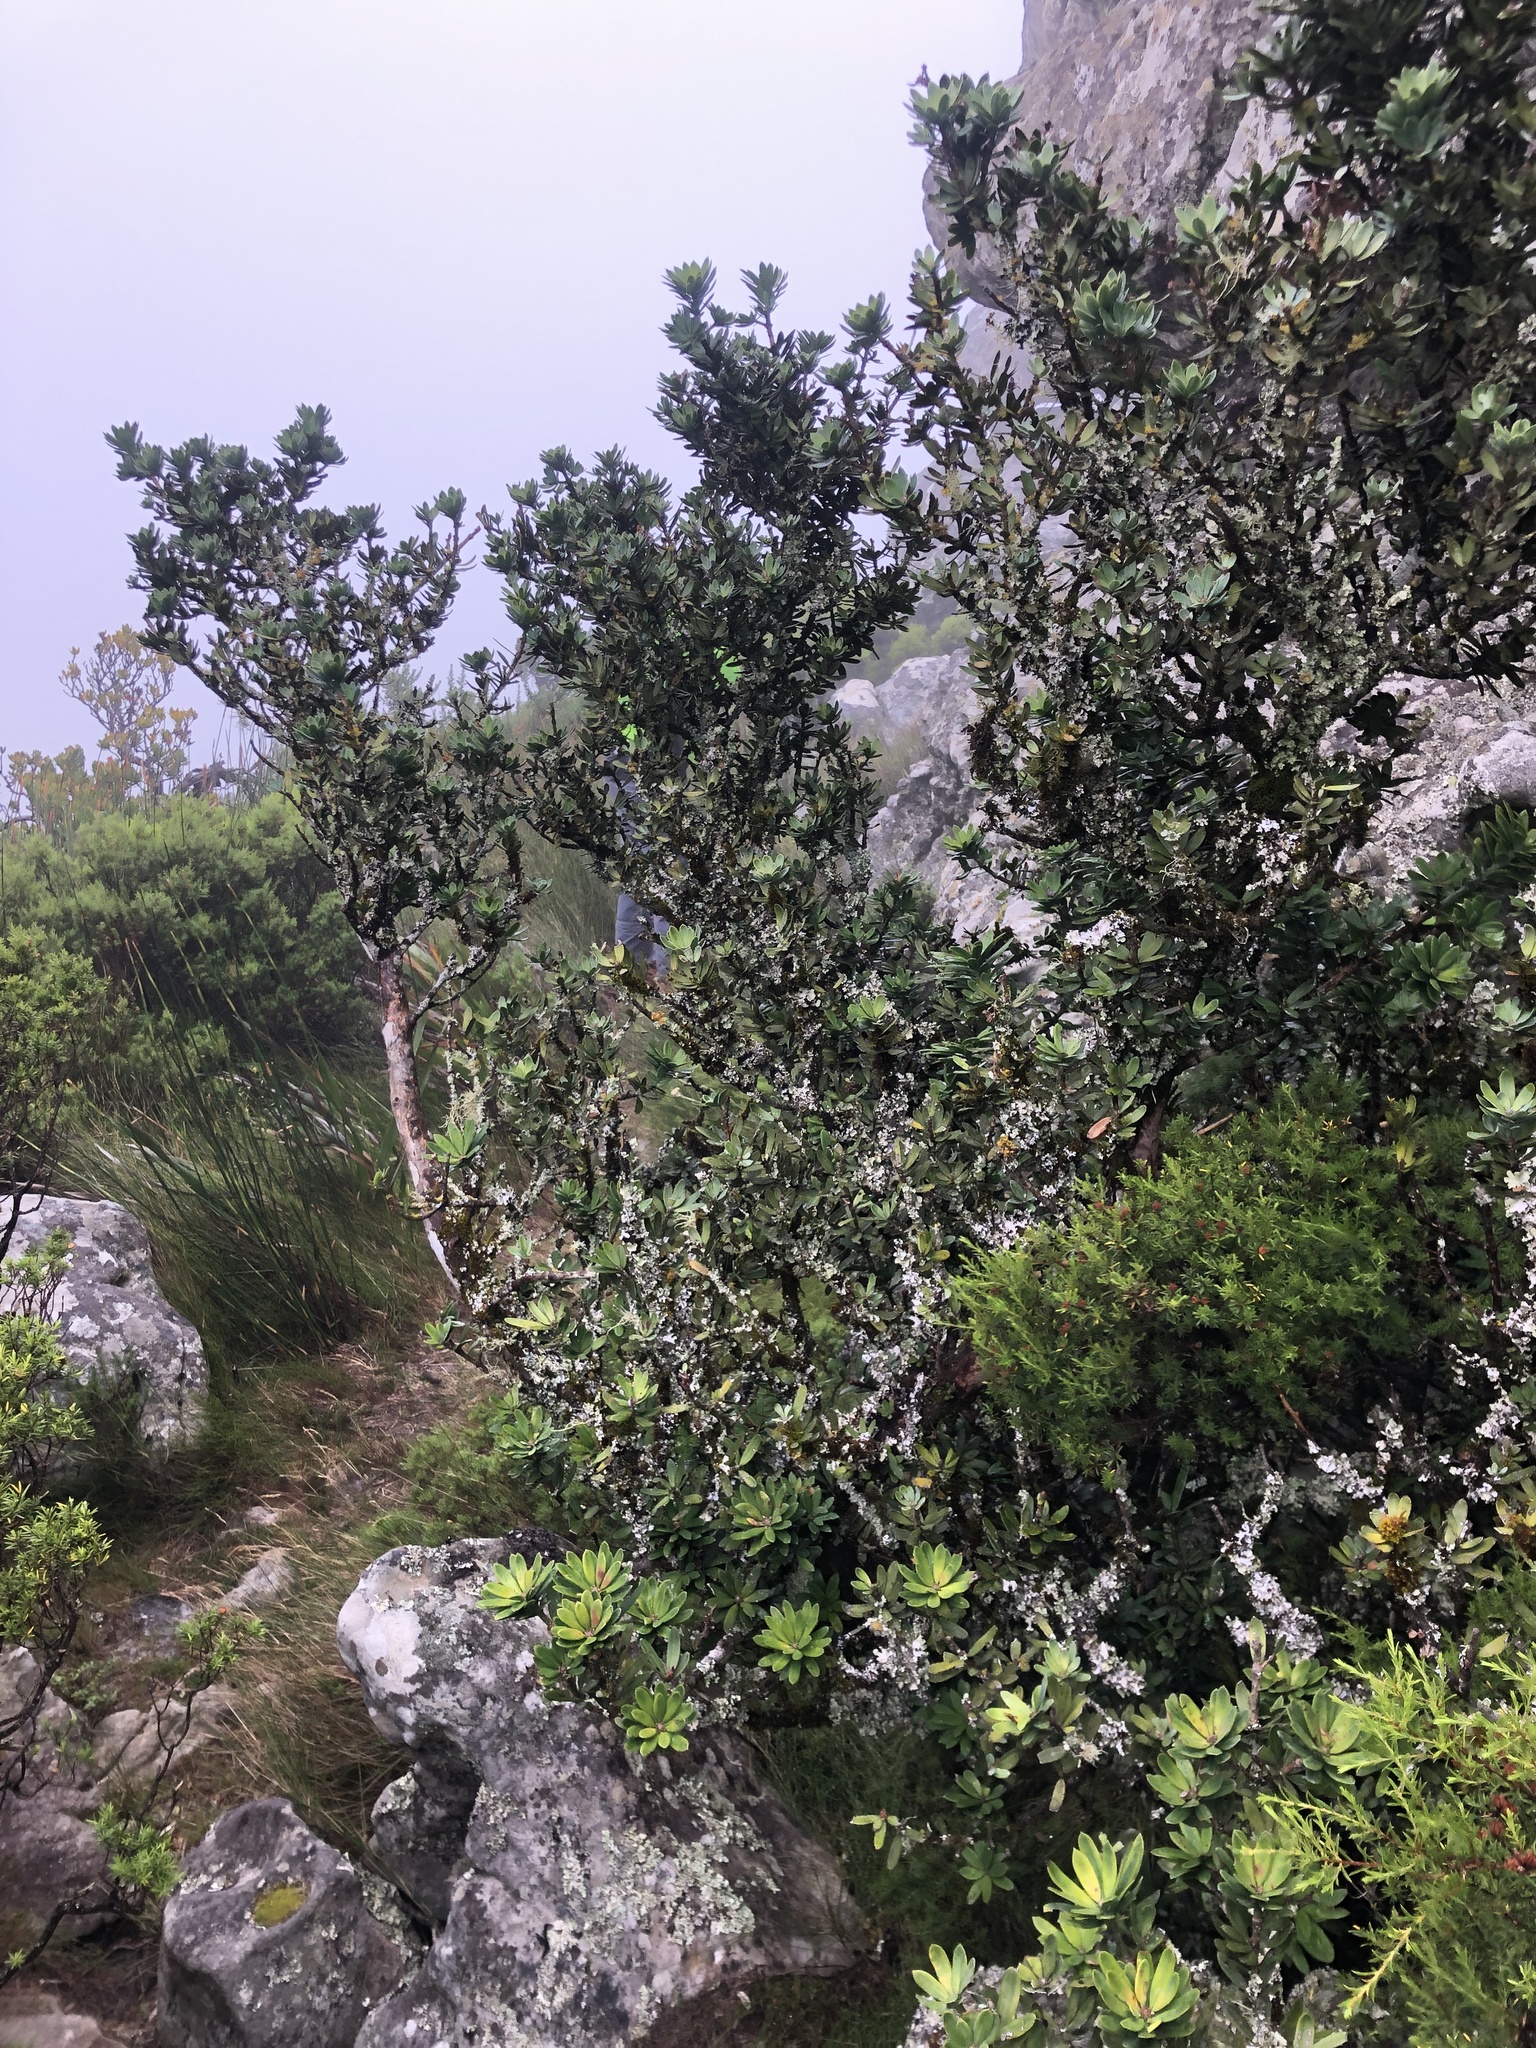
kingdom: Plantae
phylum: Tracheophyta
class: Pinopsida
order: Pinales
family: Podocarpaceae
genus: Podocarpus
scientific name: Podocarpus latifolius
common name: True yellowwood
